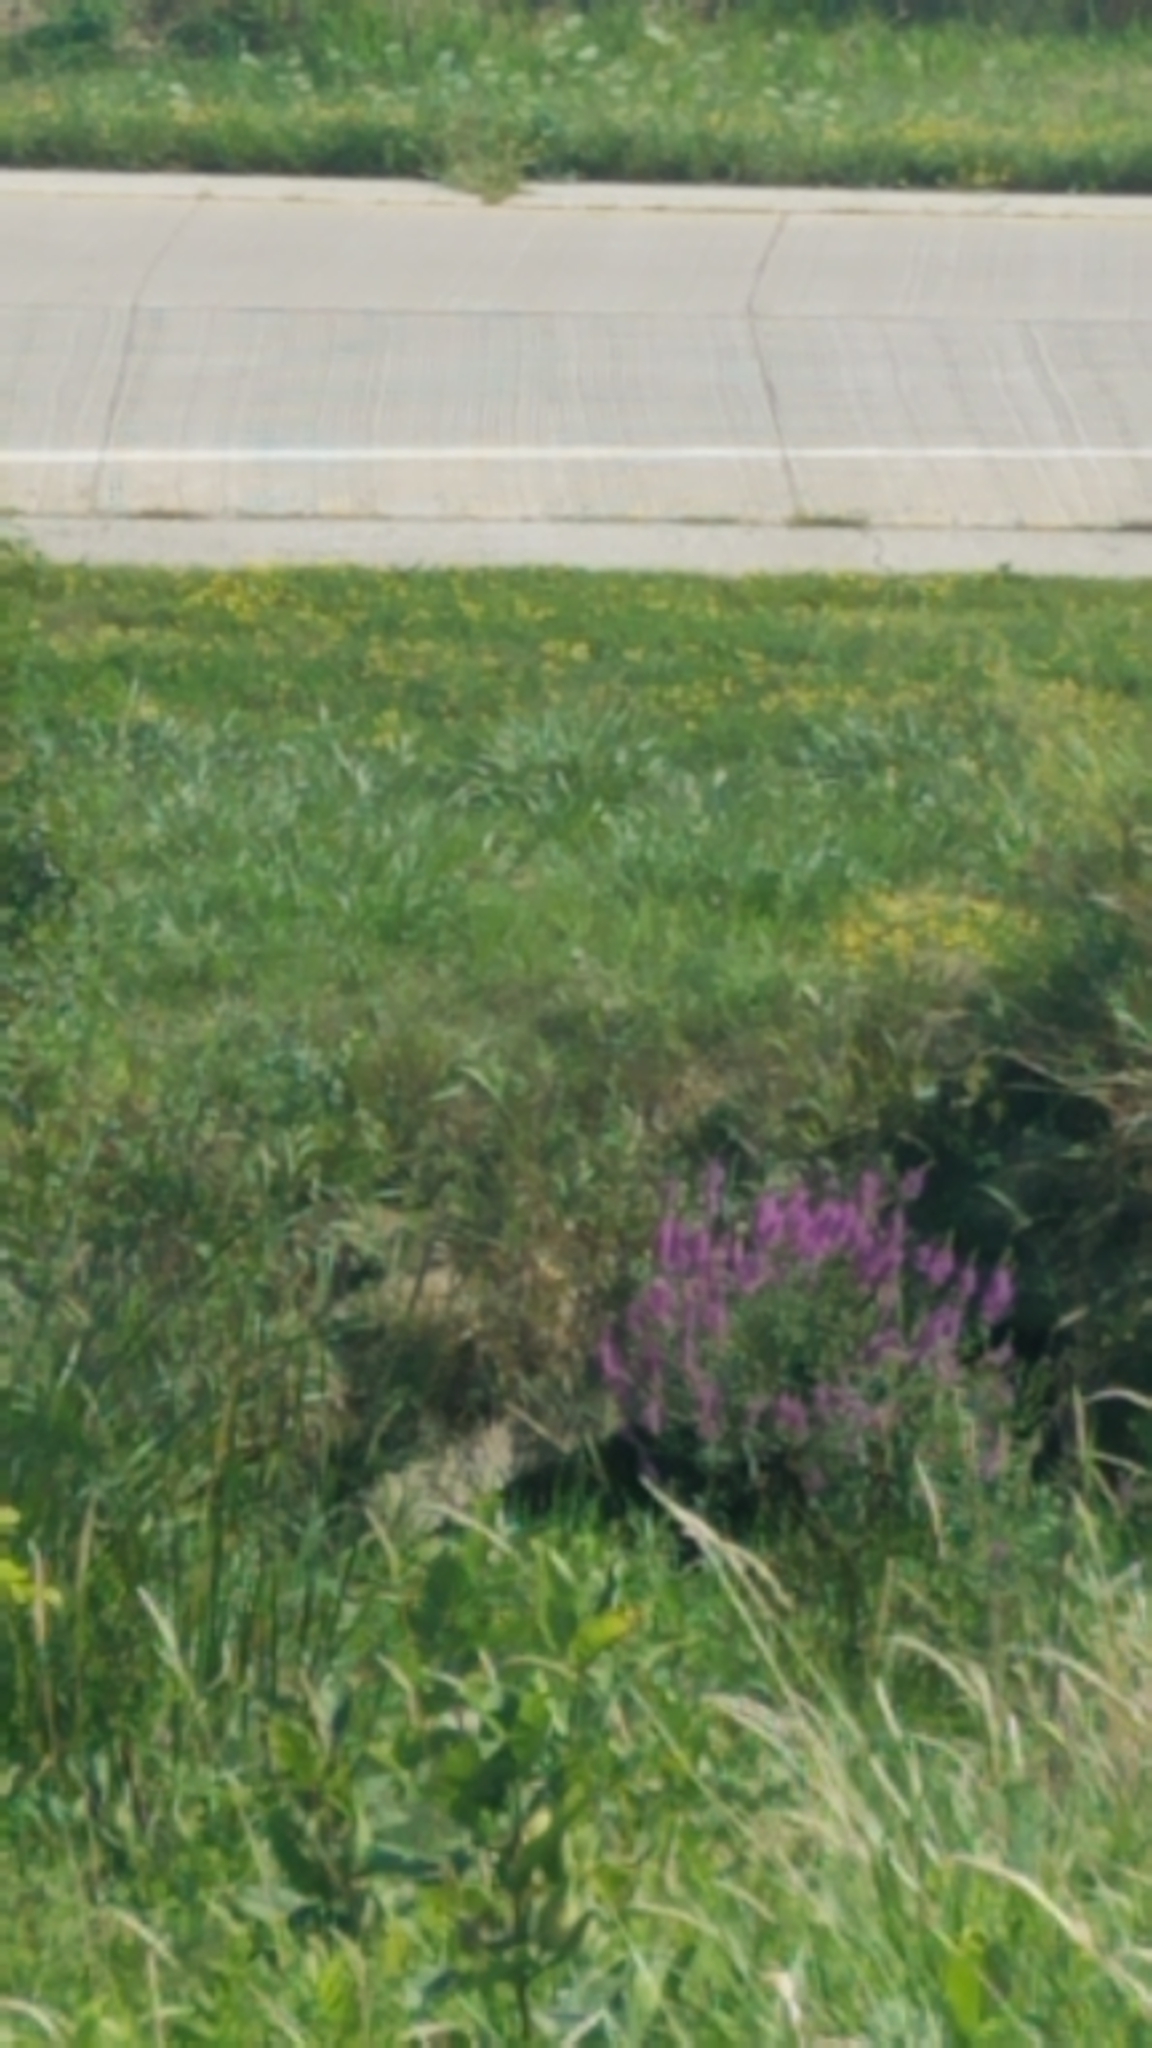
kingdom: Plantae
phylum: Tracheophyta
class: Magnoliopsida
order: Myrtales
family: Lythraceae
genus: Lythrum
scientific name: Lythrum salicaria
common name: Purple loosestrife
